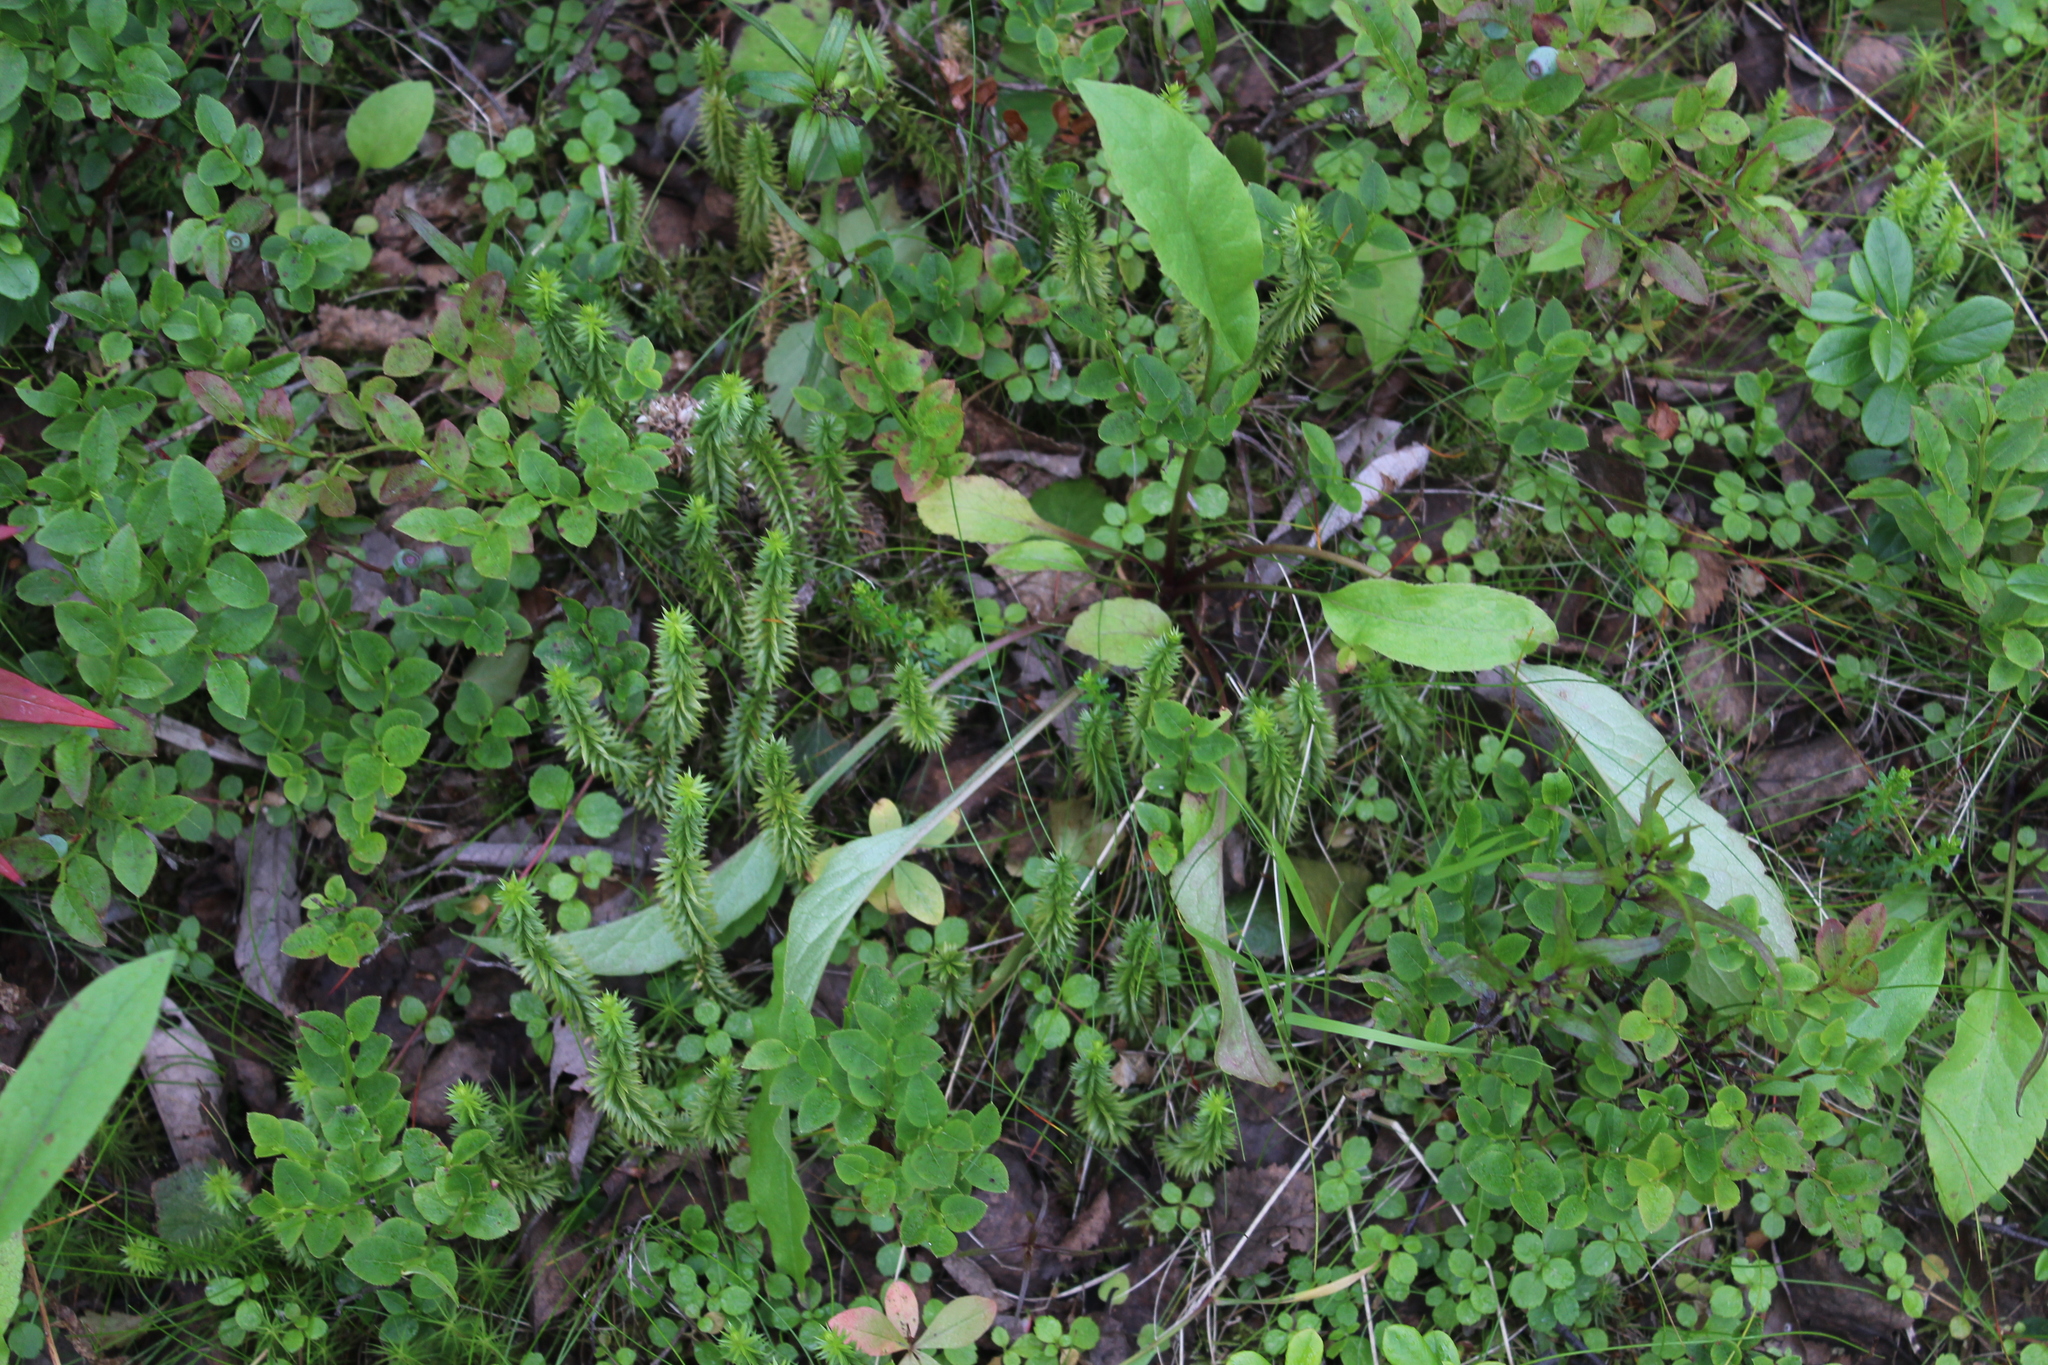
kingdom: Plantae
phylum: Tracheophyta
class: Lycopodiopsida
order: Lycopodiales
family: Lycopodiaceae
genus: Spinulum
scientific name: Spinulum annotinum
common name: Interrupted club-moss
